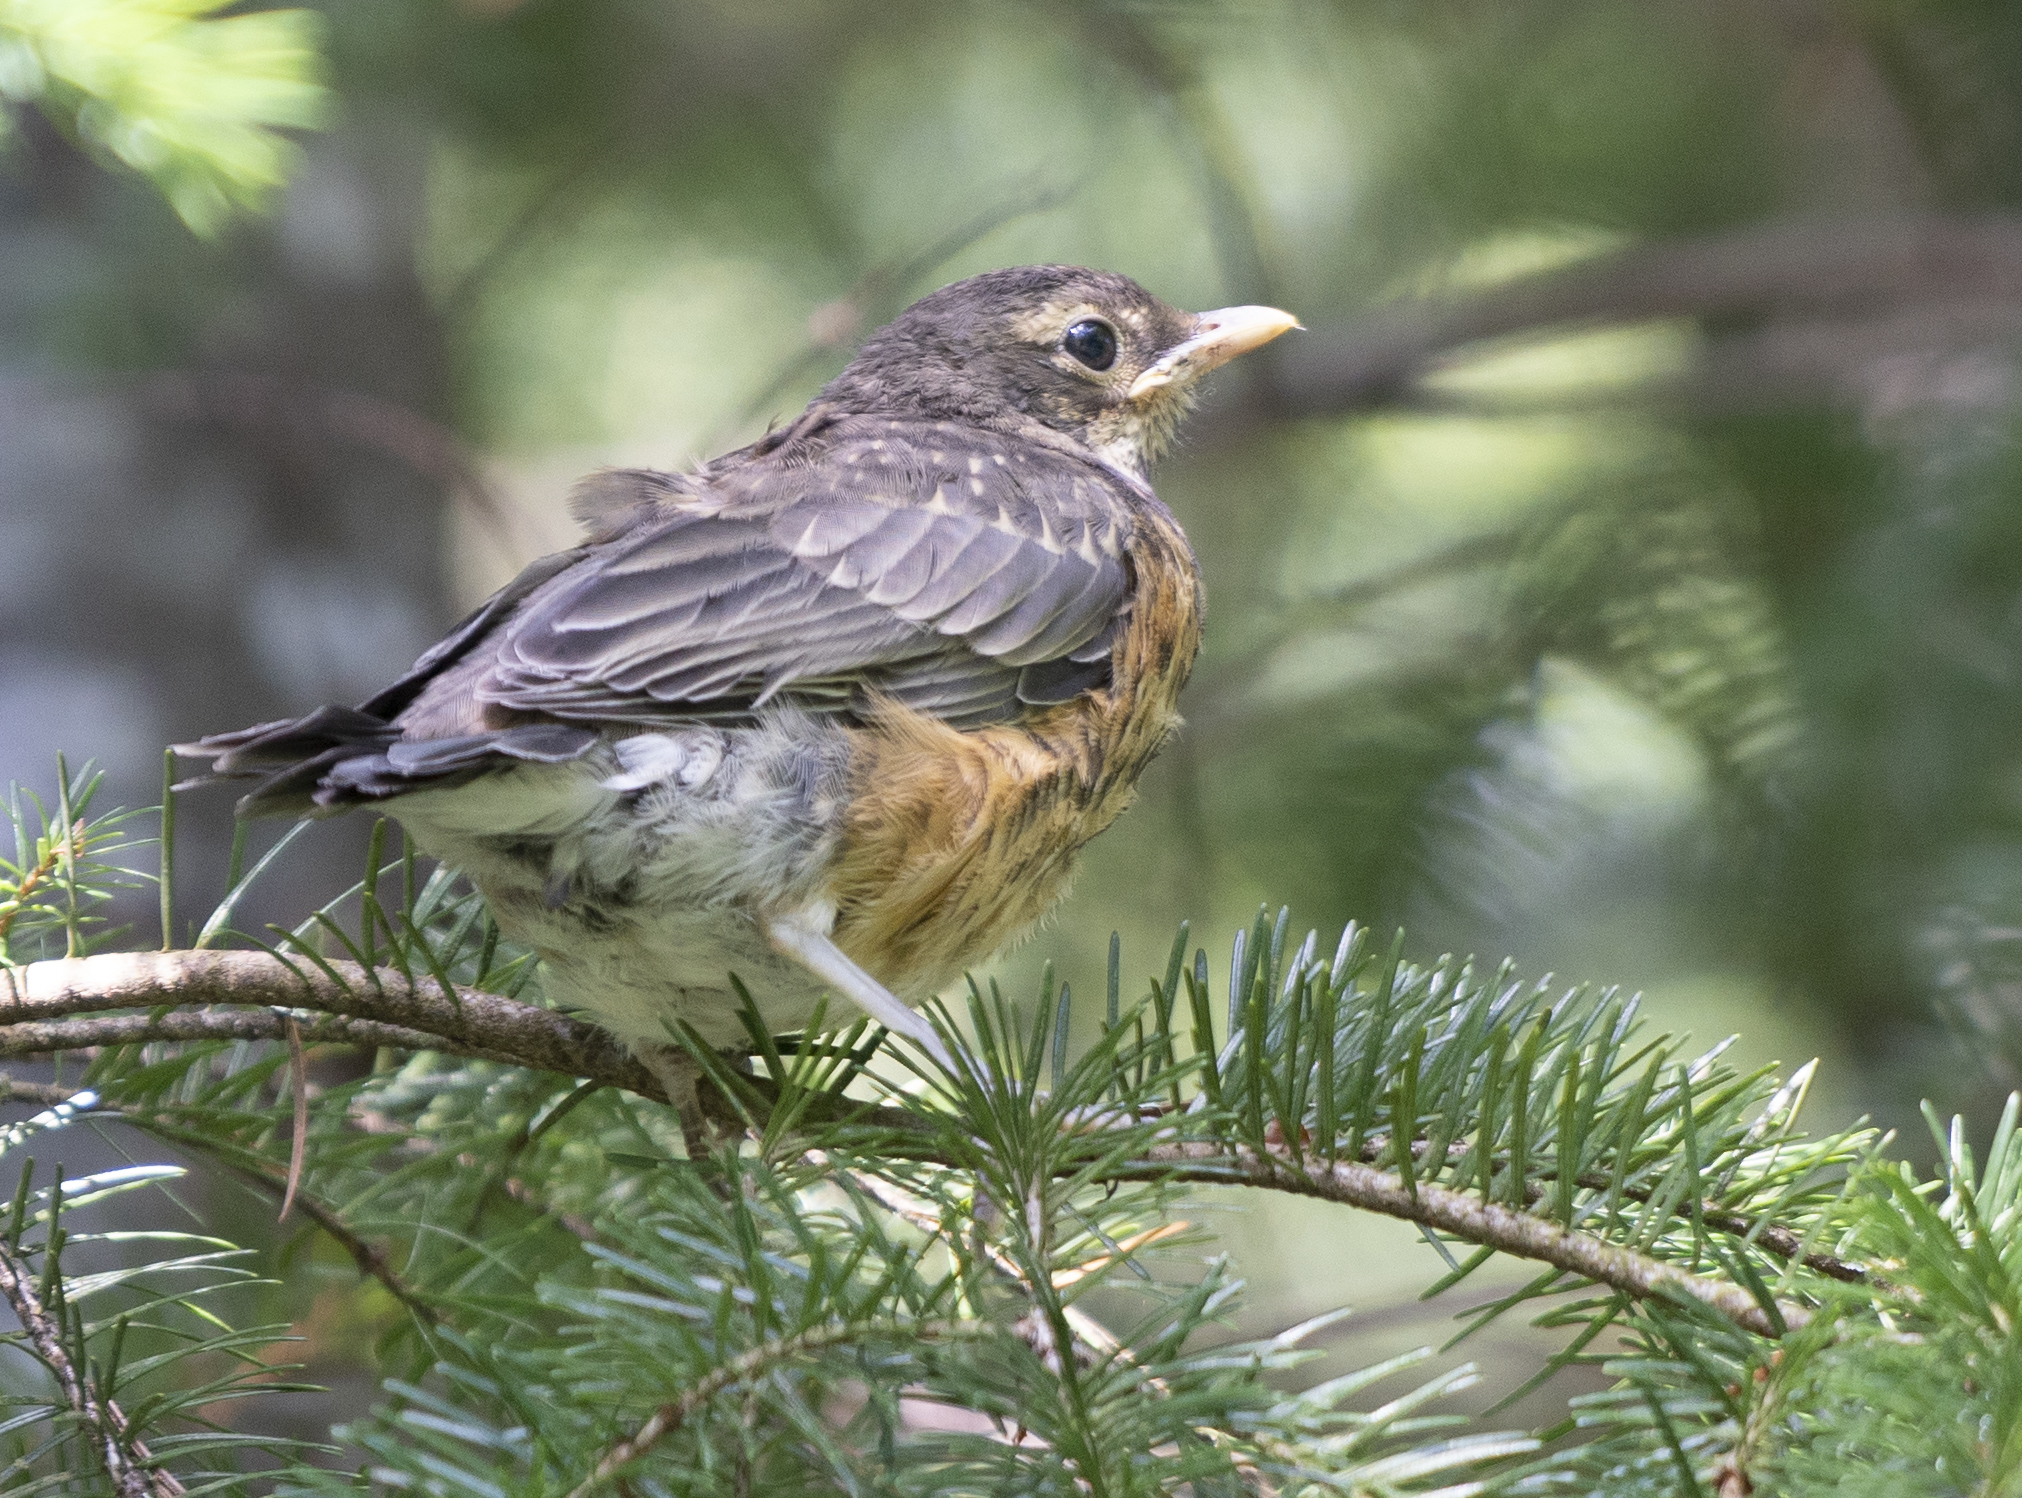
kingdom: Animalia
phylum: Chordata
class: Aves
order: Passeriformes
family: Turdidae
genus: Turdus
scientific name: Turdus migratorius
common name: American robin
